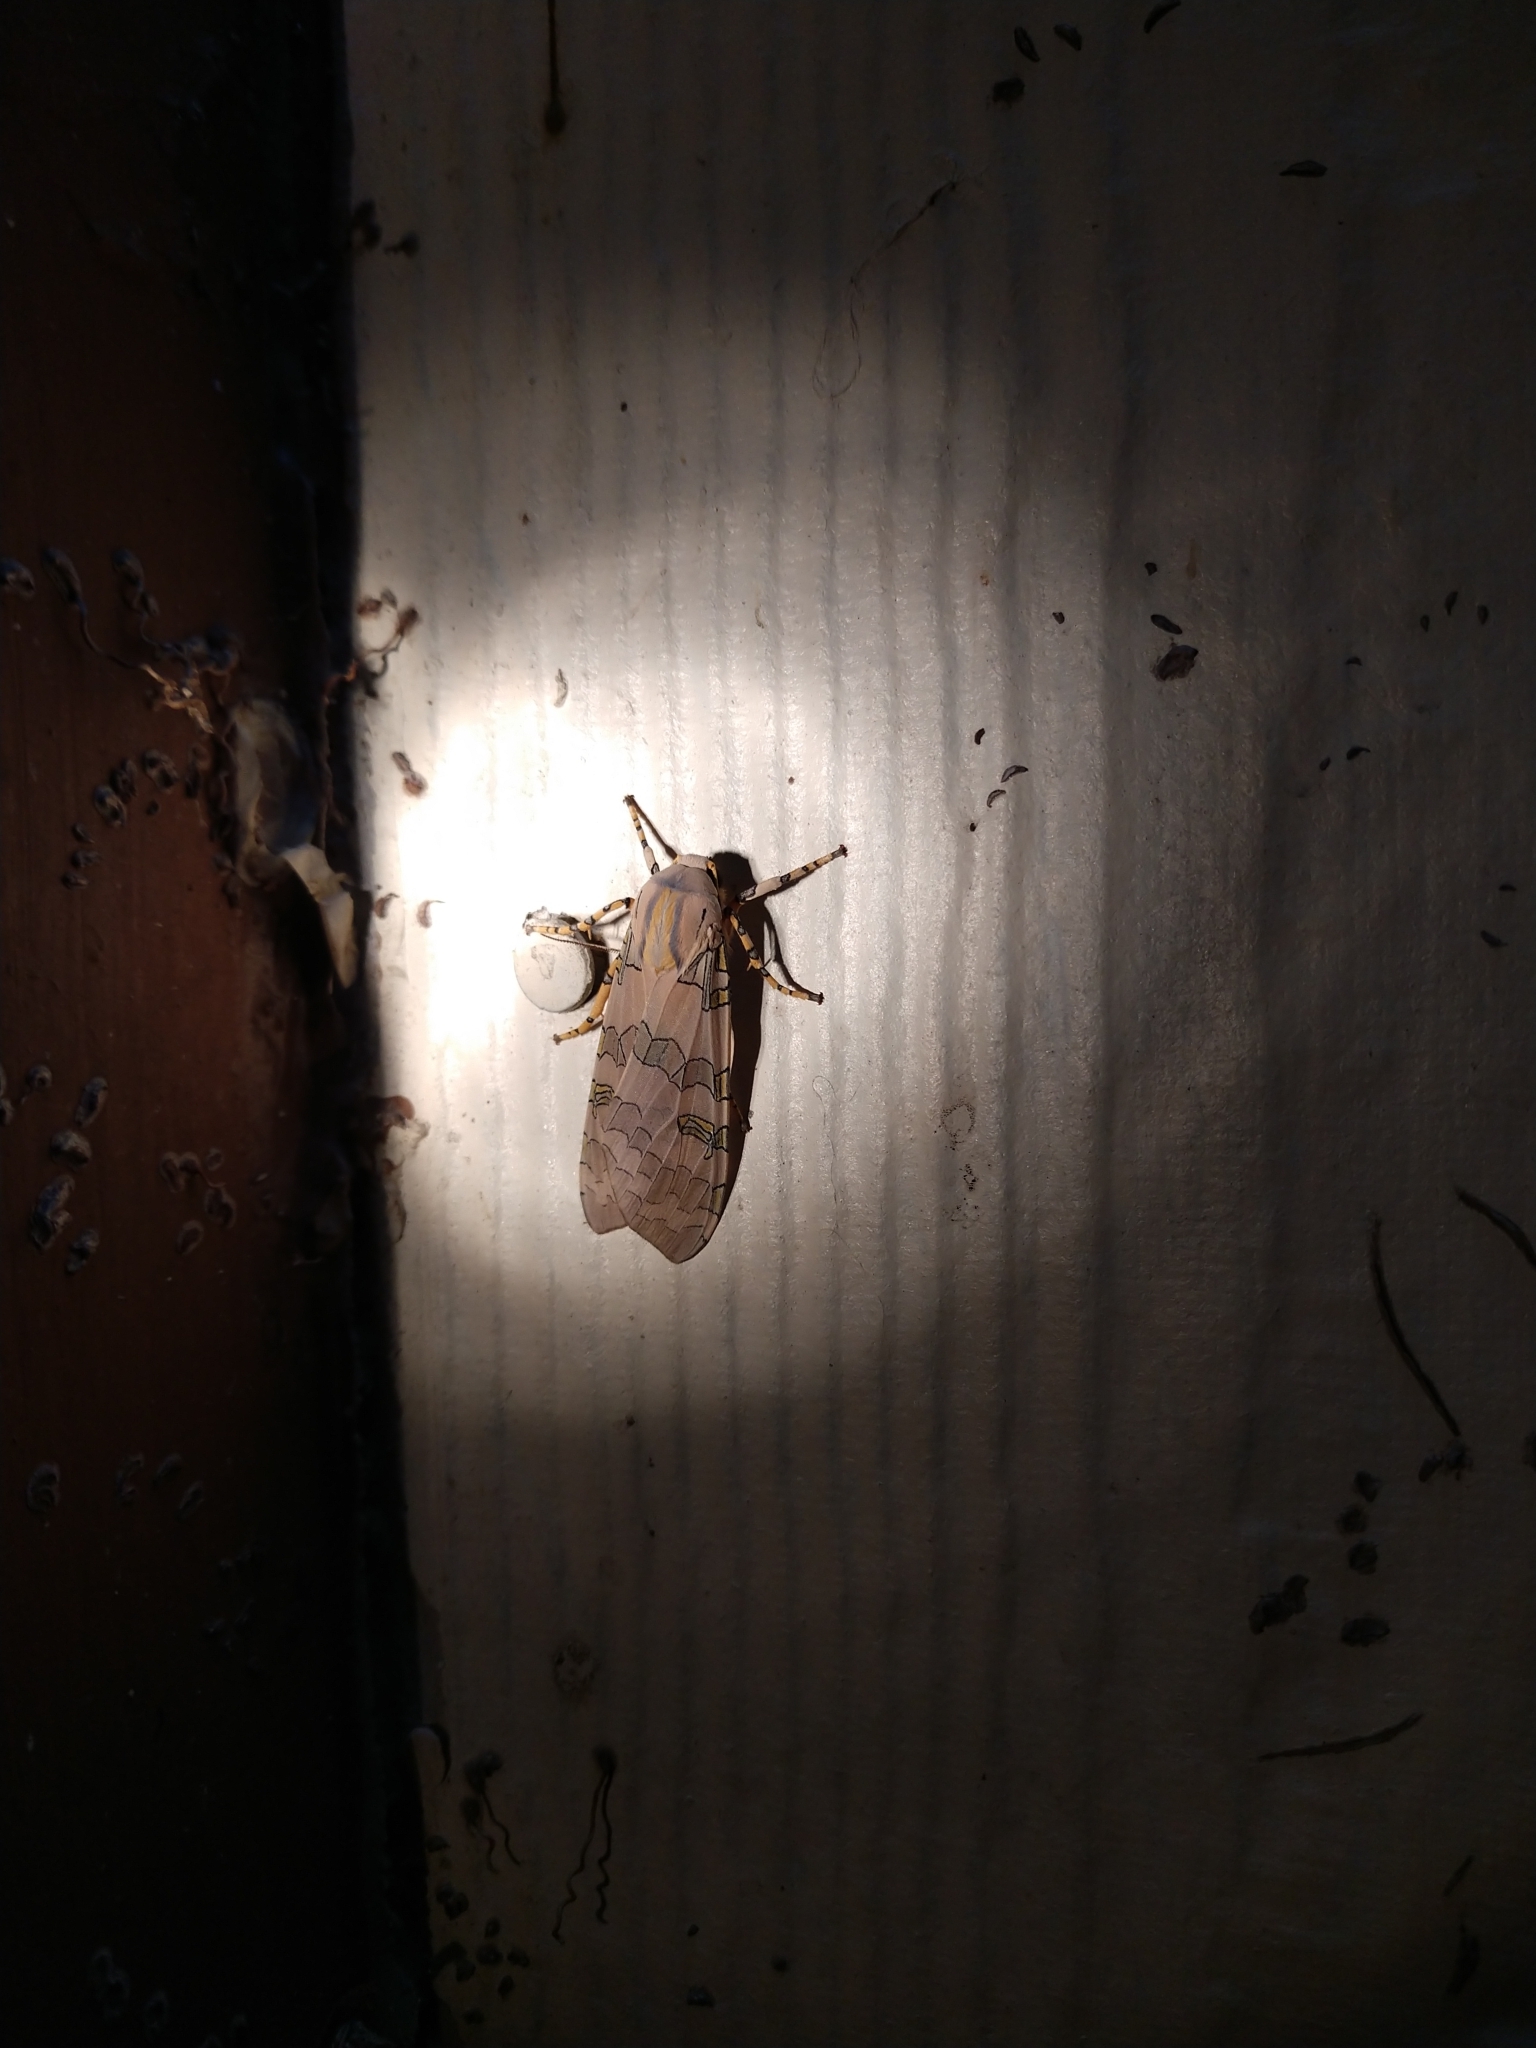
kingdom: Animalia
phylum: Arthropoda
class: Insecta
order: Lepidoptera
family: Erebidae
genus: Halysidota
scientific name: Halysidota
